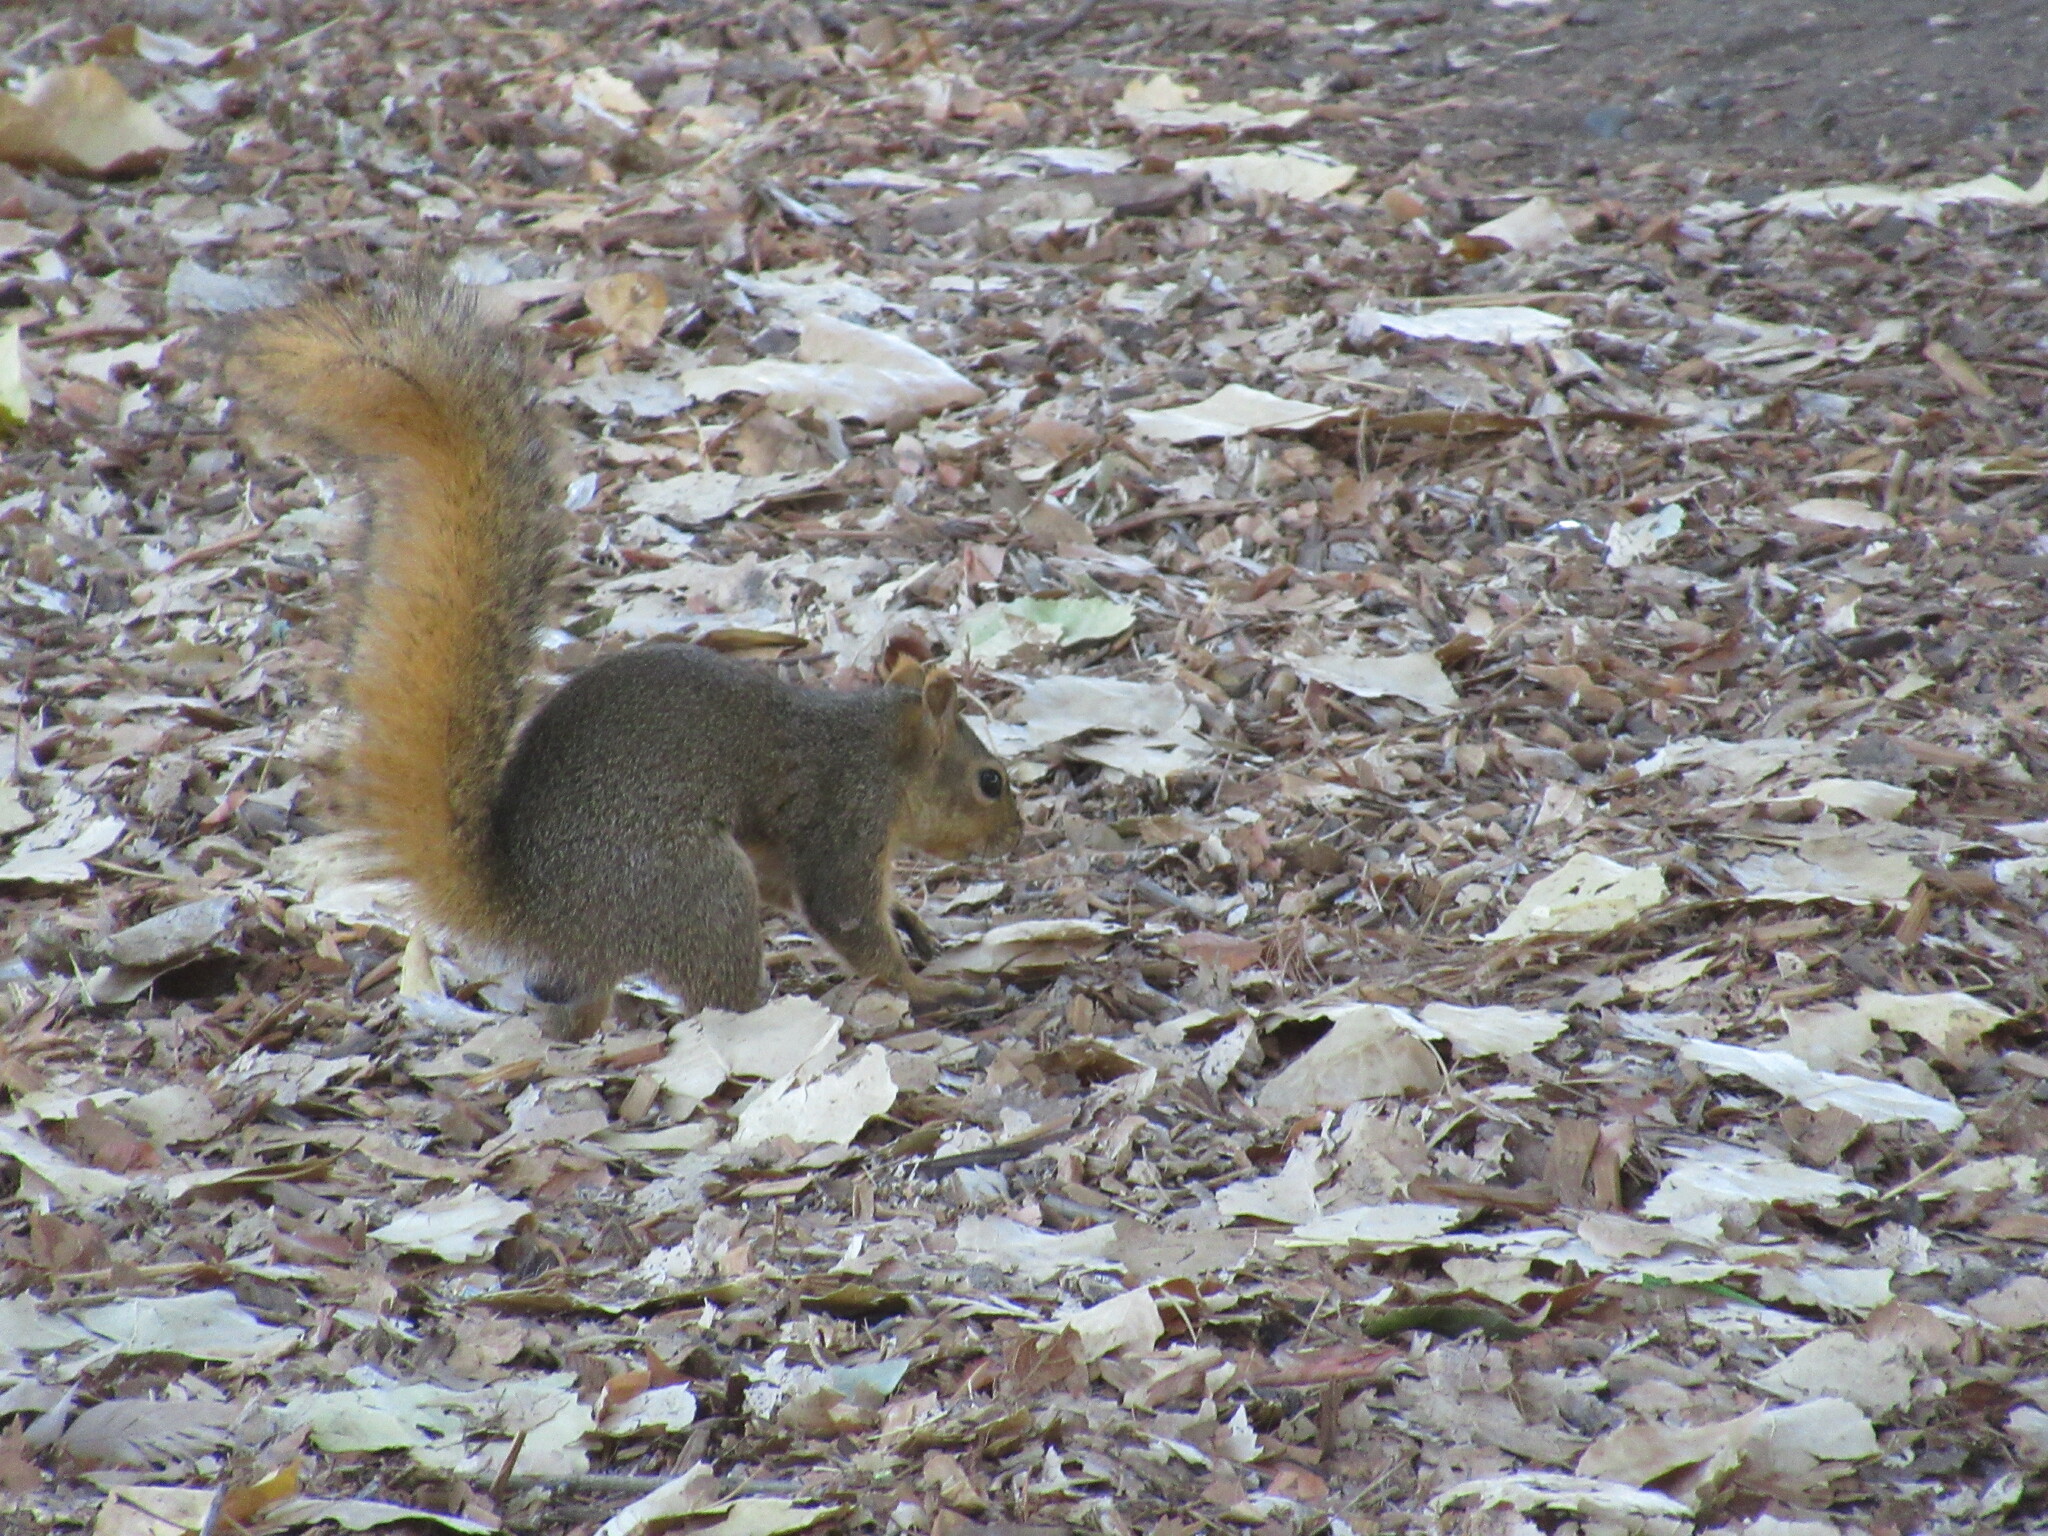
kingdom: Animalia
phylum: Chordata
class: Mammalia
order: Rodentia
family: Sciuridae
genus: Sciurus
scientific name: Sciurus niger
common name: Fox squirrel
